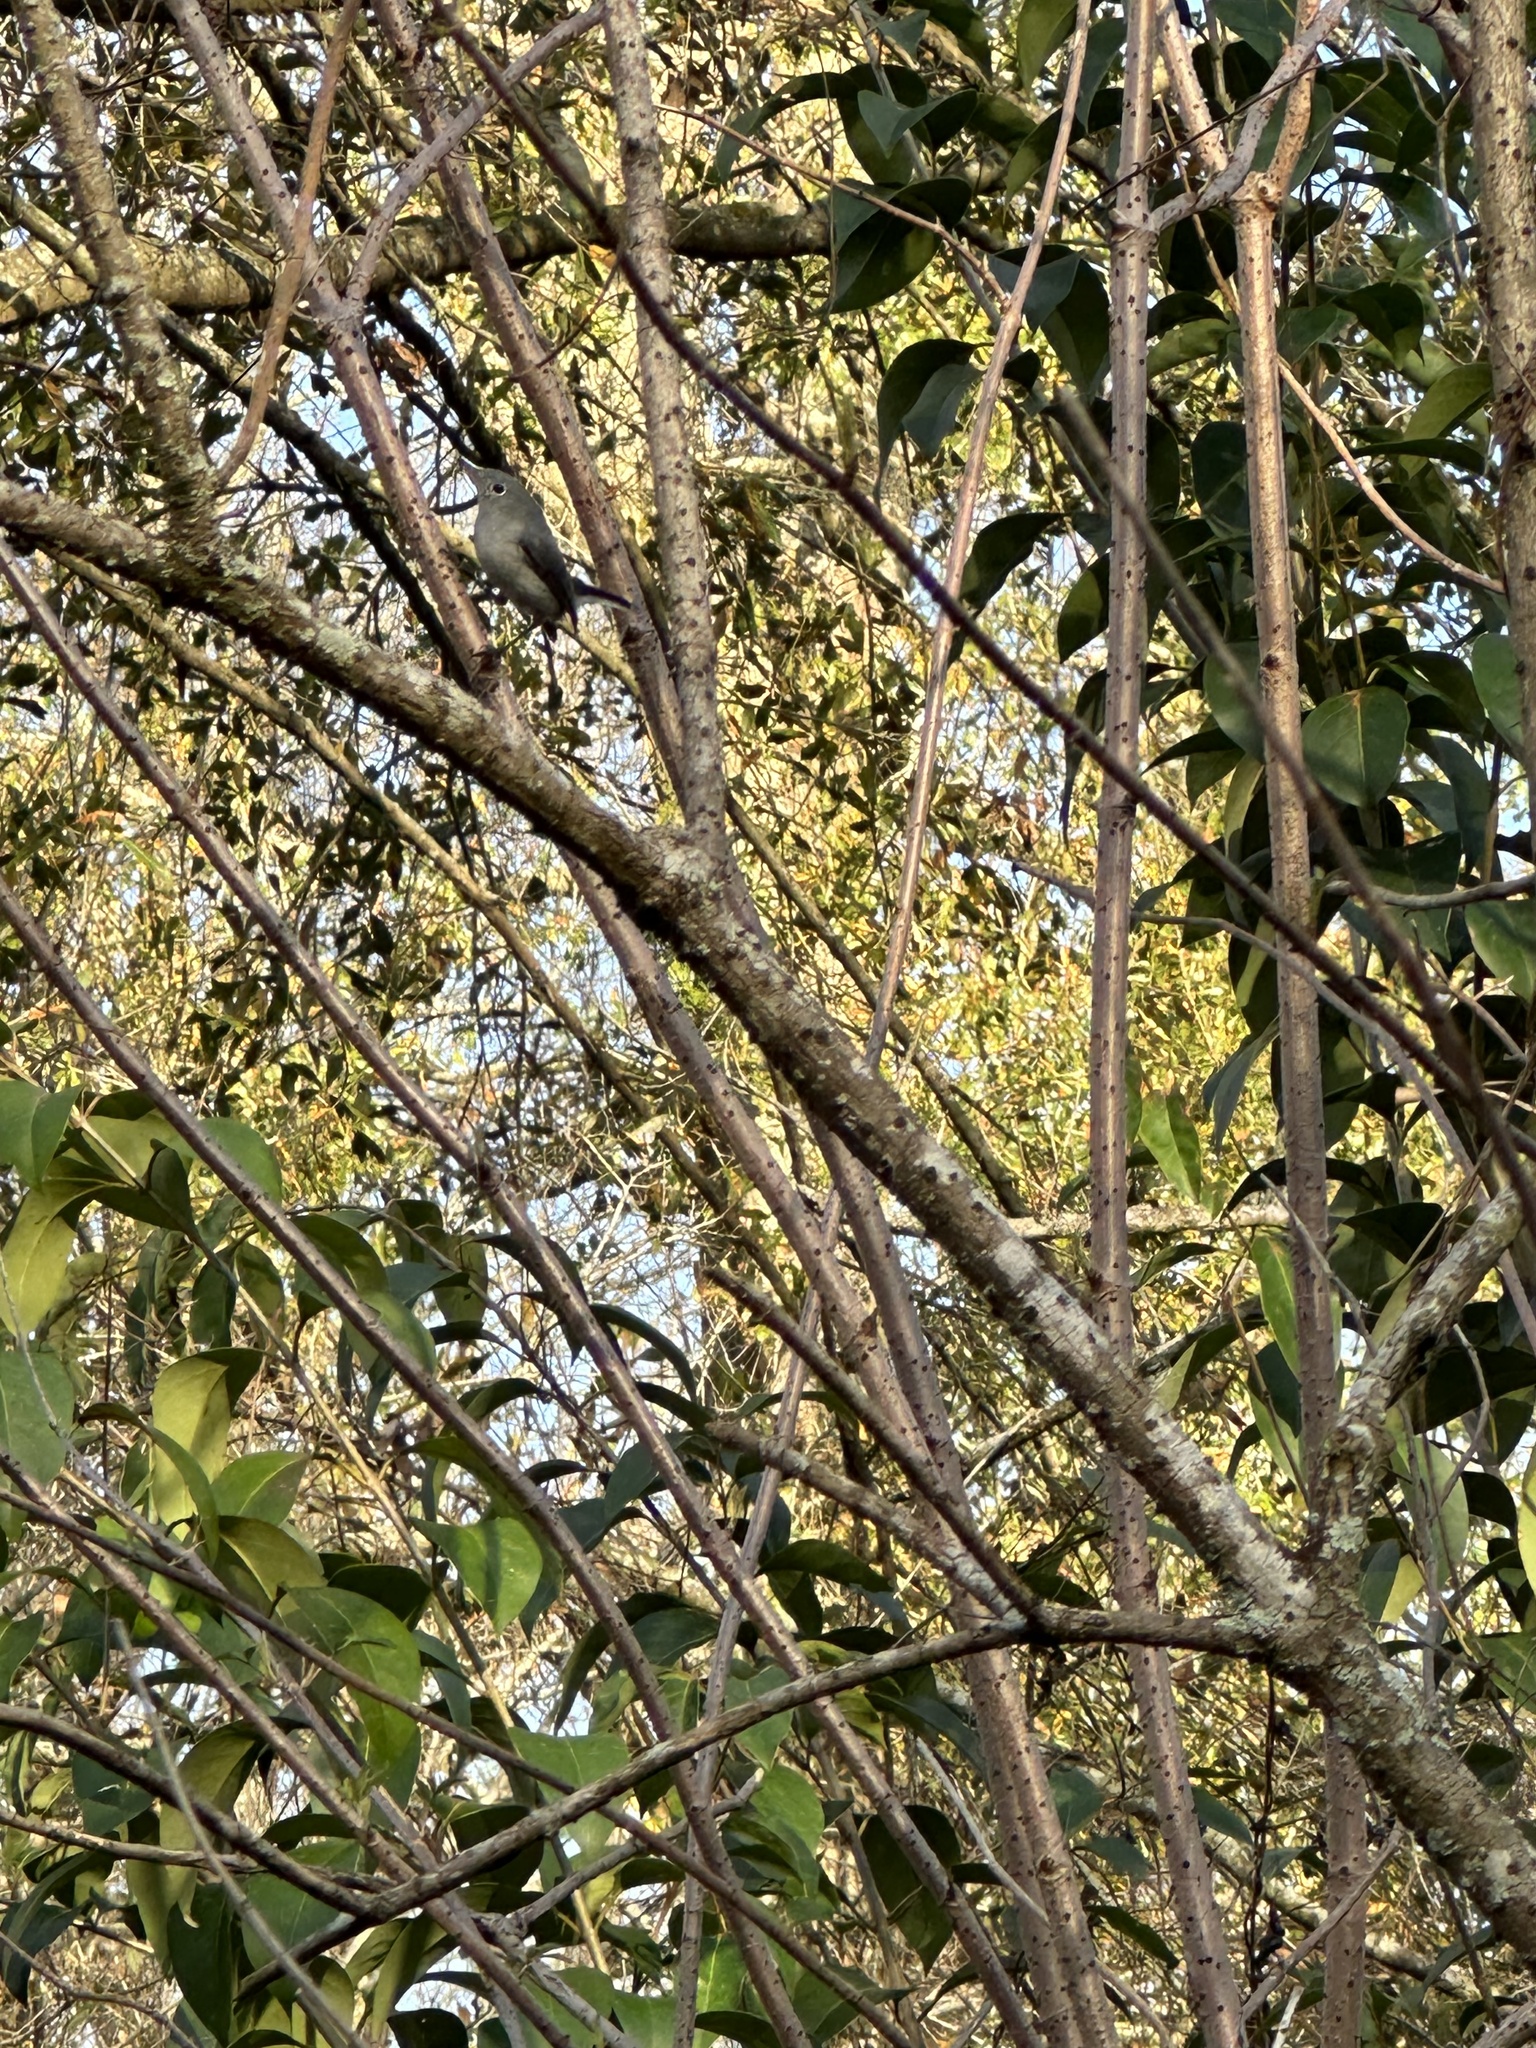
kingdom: Animalia
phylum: Chordata
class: Aves
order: Passeriformes
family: Polioptilidae
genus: Polioptila
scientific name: Polioptila caerulea
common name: Blue-gray gnatcatcher
